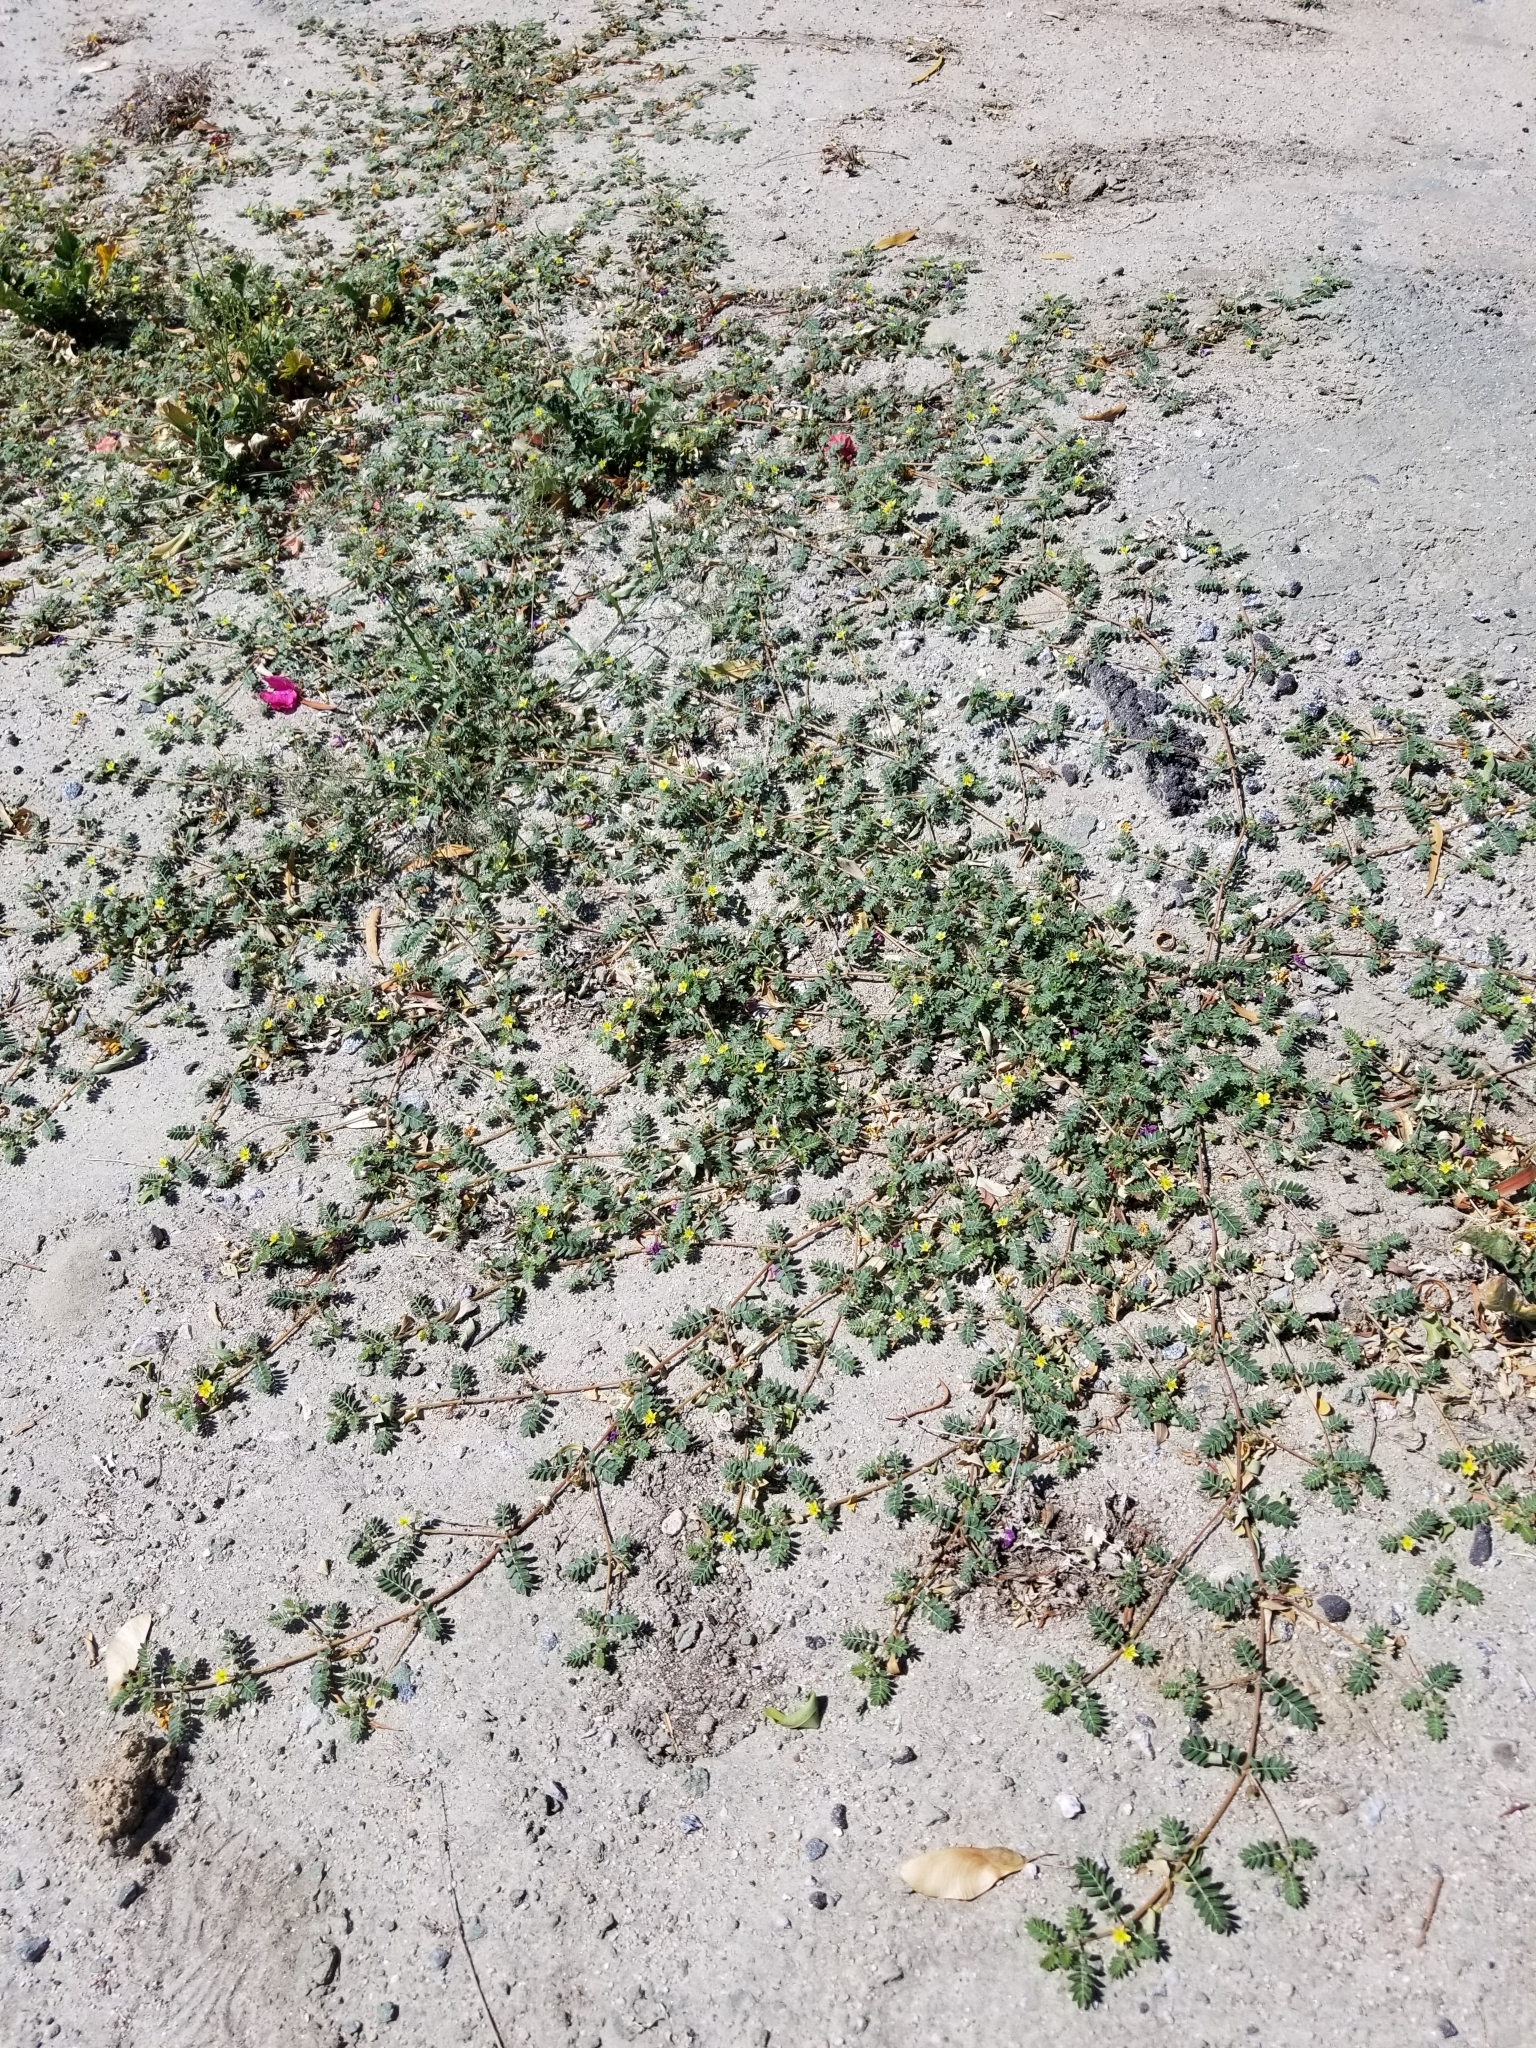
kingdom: Plantae
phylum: Tracheophyta
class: Magnoliopsida
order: Zygophyllales
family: Zygophyllaceae
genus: Tribulus
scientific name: Tribulus terrestris
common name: Puncturevine
